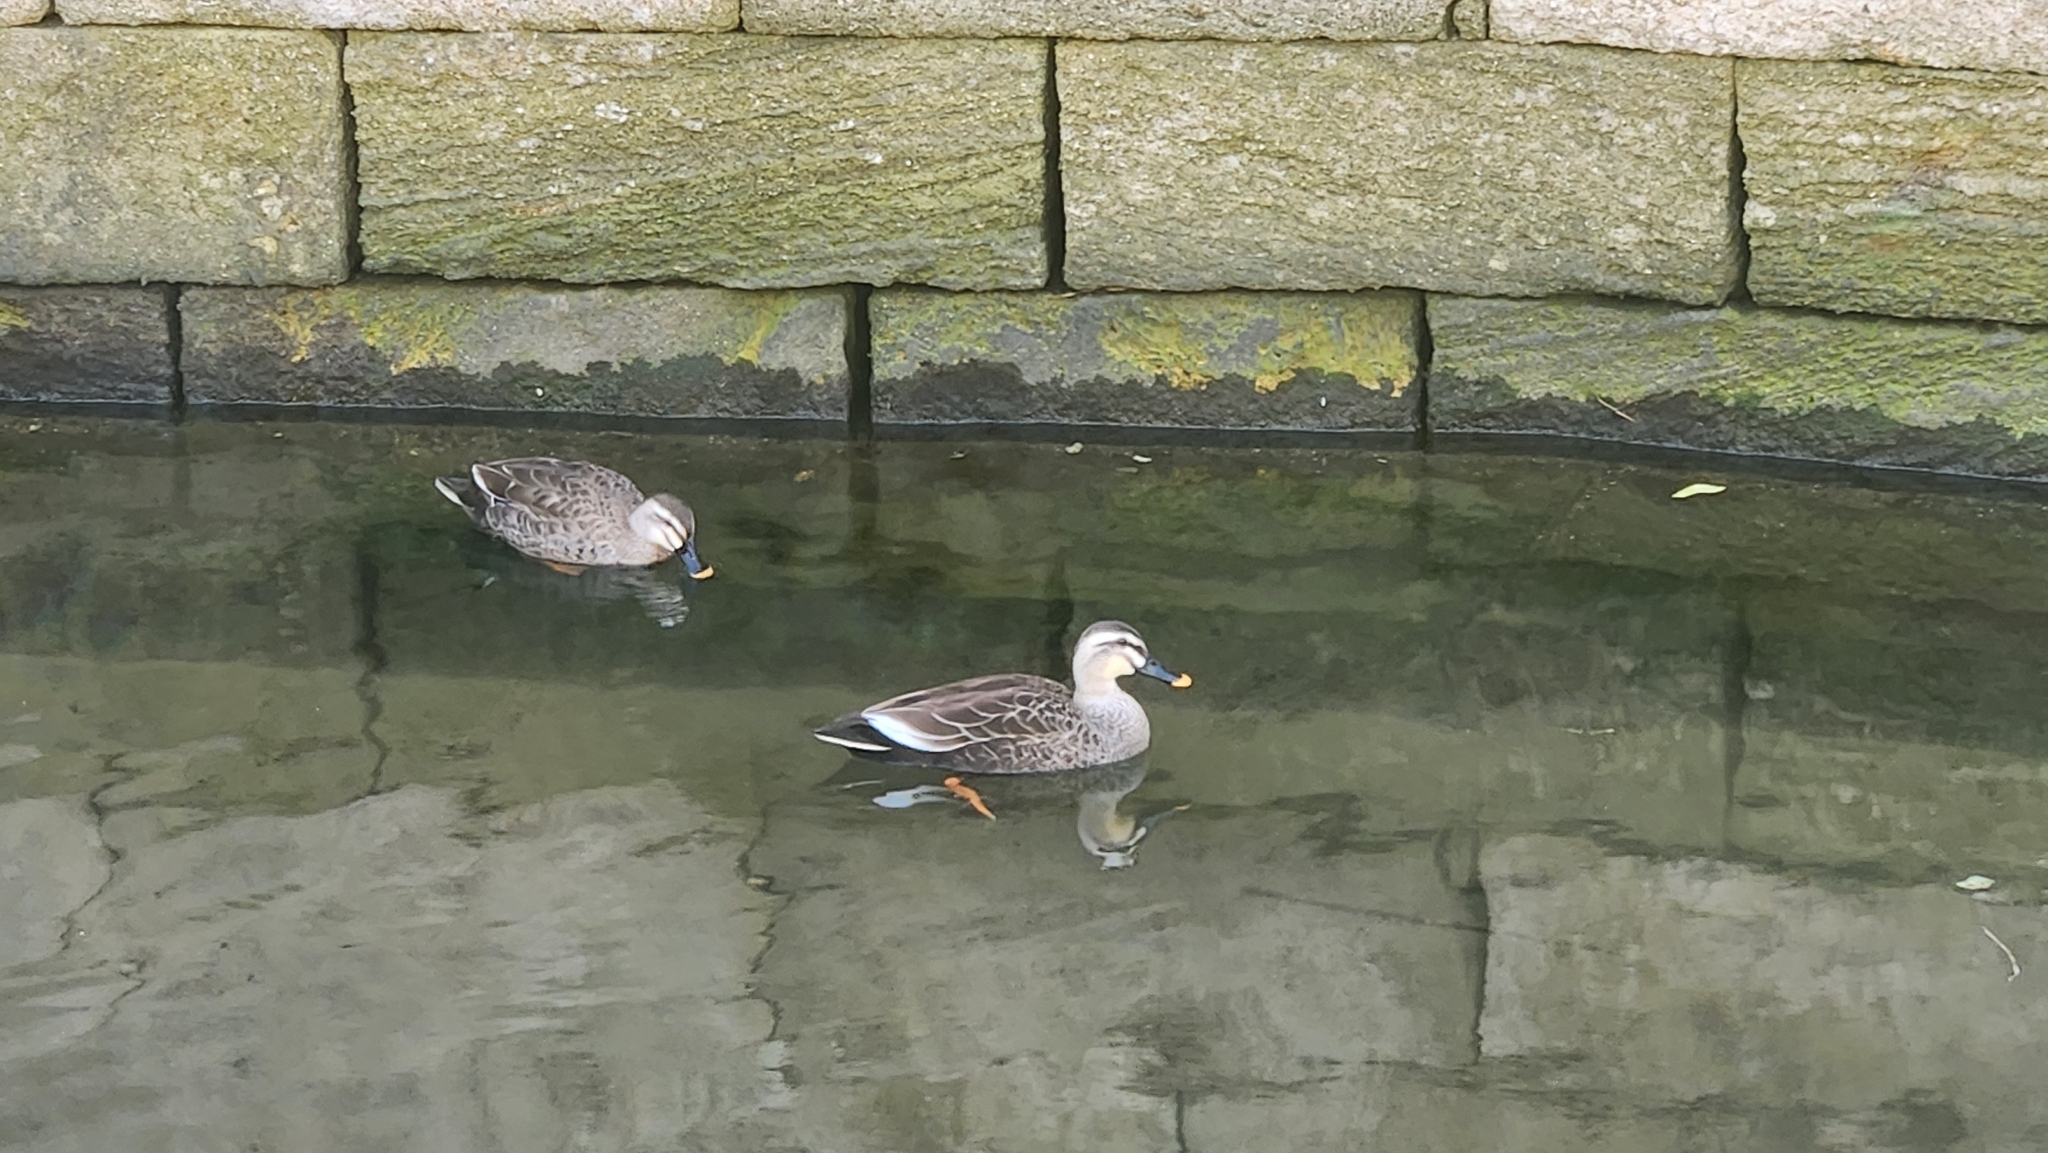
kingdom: Animalia
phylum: Chordata
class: Aves
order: Anseriformes
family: Anatidae
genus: Anas
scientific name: Anas zonorhyncha
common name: Eastern spot-billed duck
